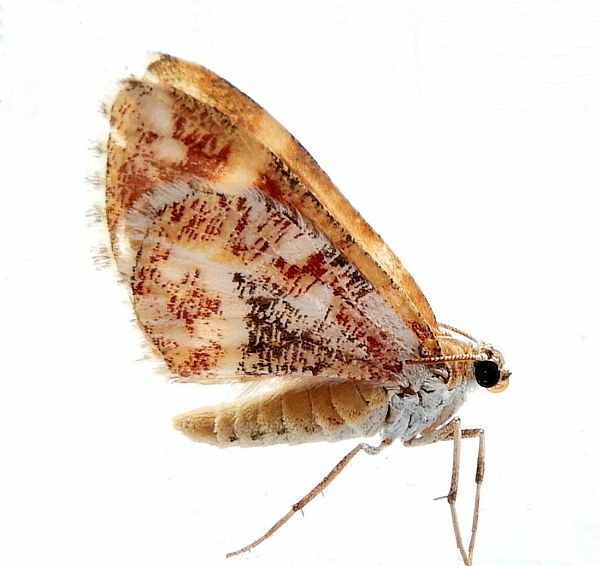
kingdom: Animalia
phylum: Arthropoda
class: Insecta
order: Lepidoptera
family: Geometridae
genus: Stamnodes
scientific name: Stamnodes formosata
